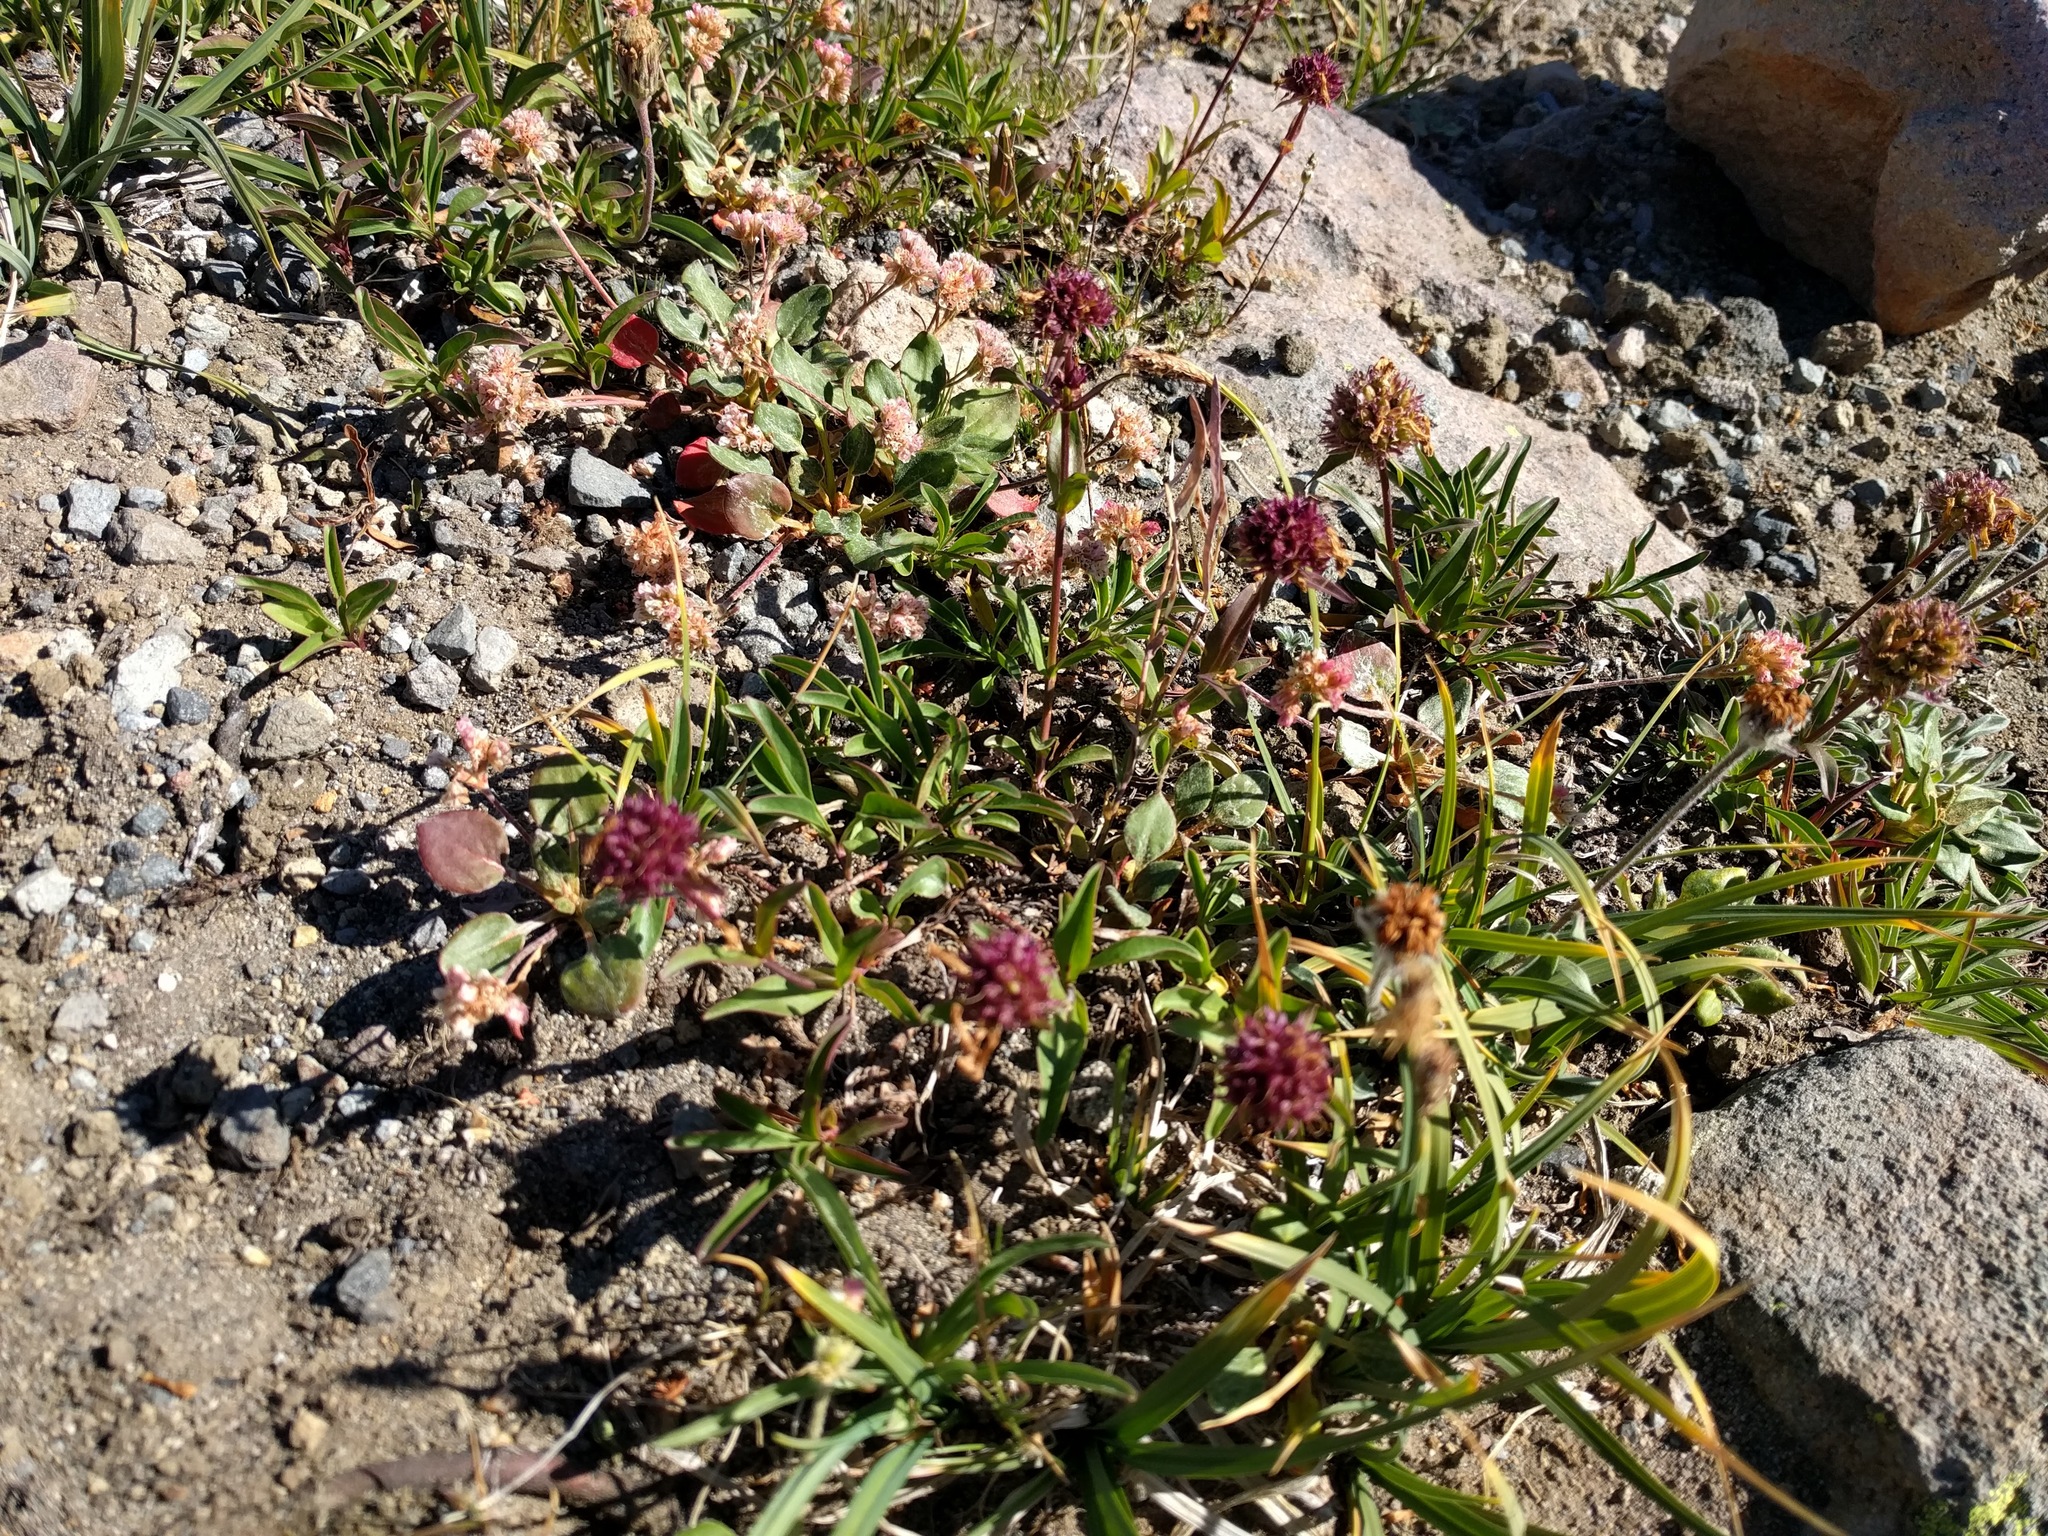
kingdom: Plantae
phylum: Tracheophyta
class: Magnoliopsida
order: Lamiales
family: Plantaginaceae
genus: Penstemon
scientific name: Penstemon procerus
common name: Small-flower penstemon
